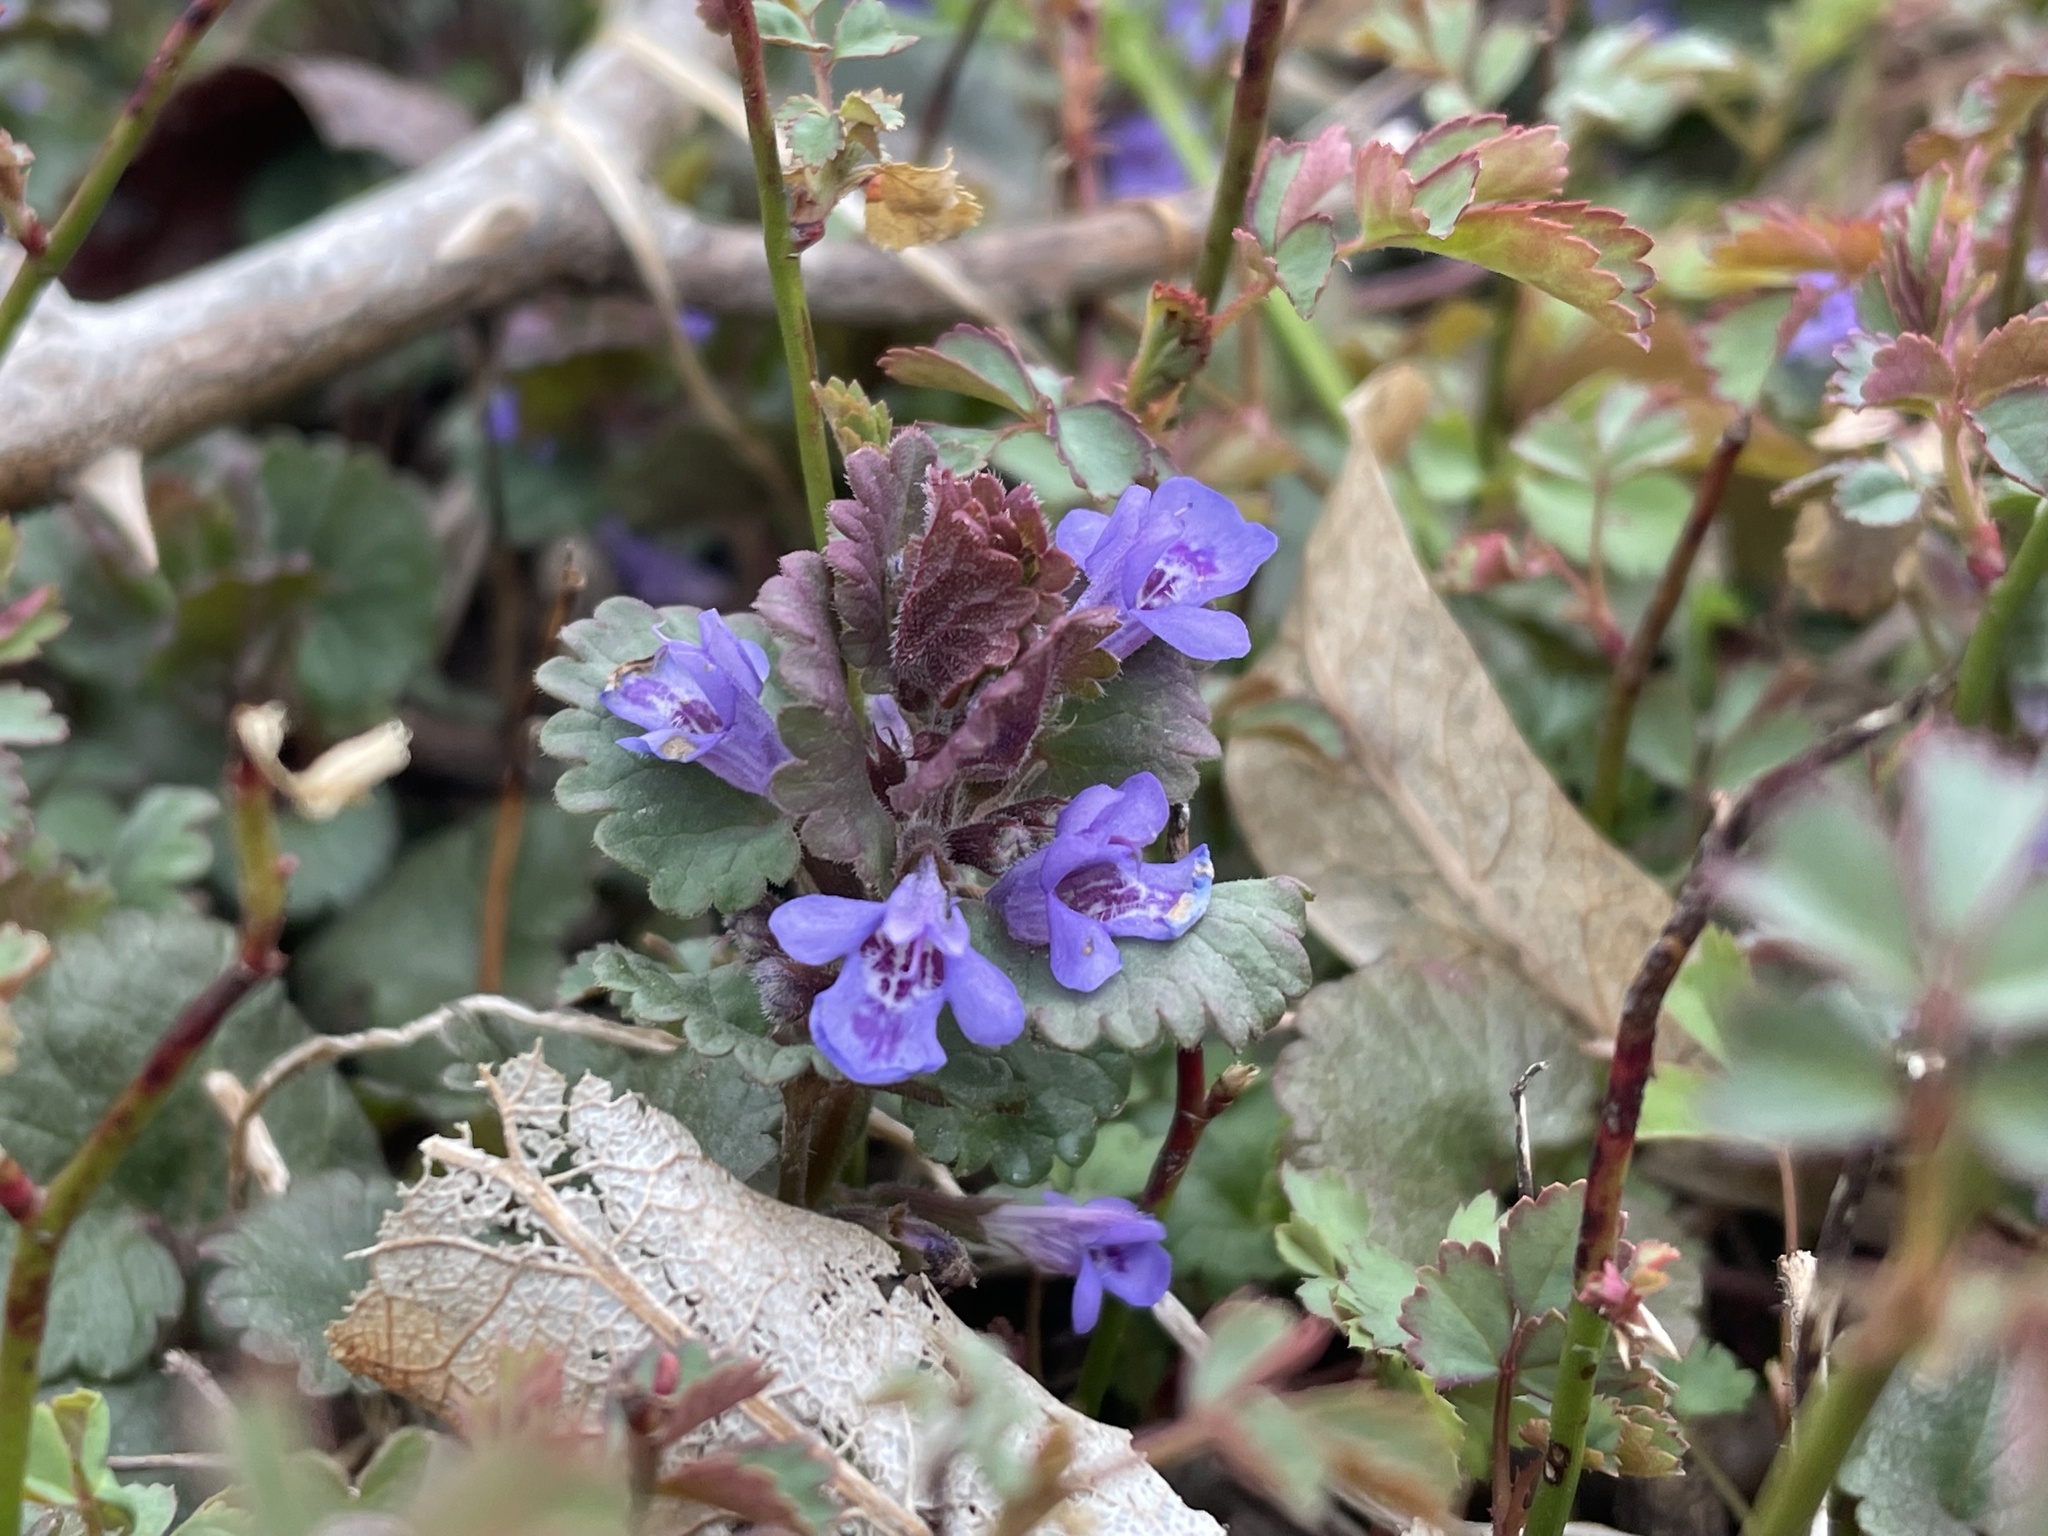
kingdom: Plantae
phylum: Tracheophyta
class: Magnoliopsida
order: Lamiales
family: Lamiaceae
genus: Glechoma
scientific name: Glechoma hederacea
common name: Ground ivy
